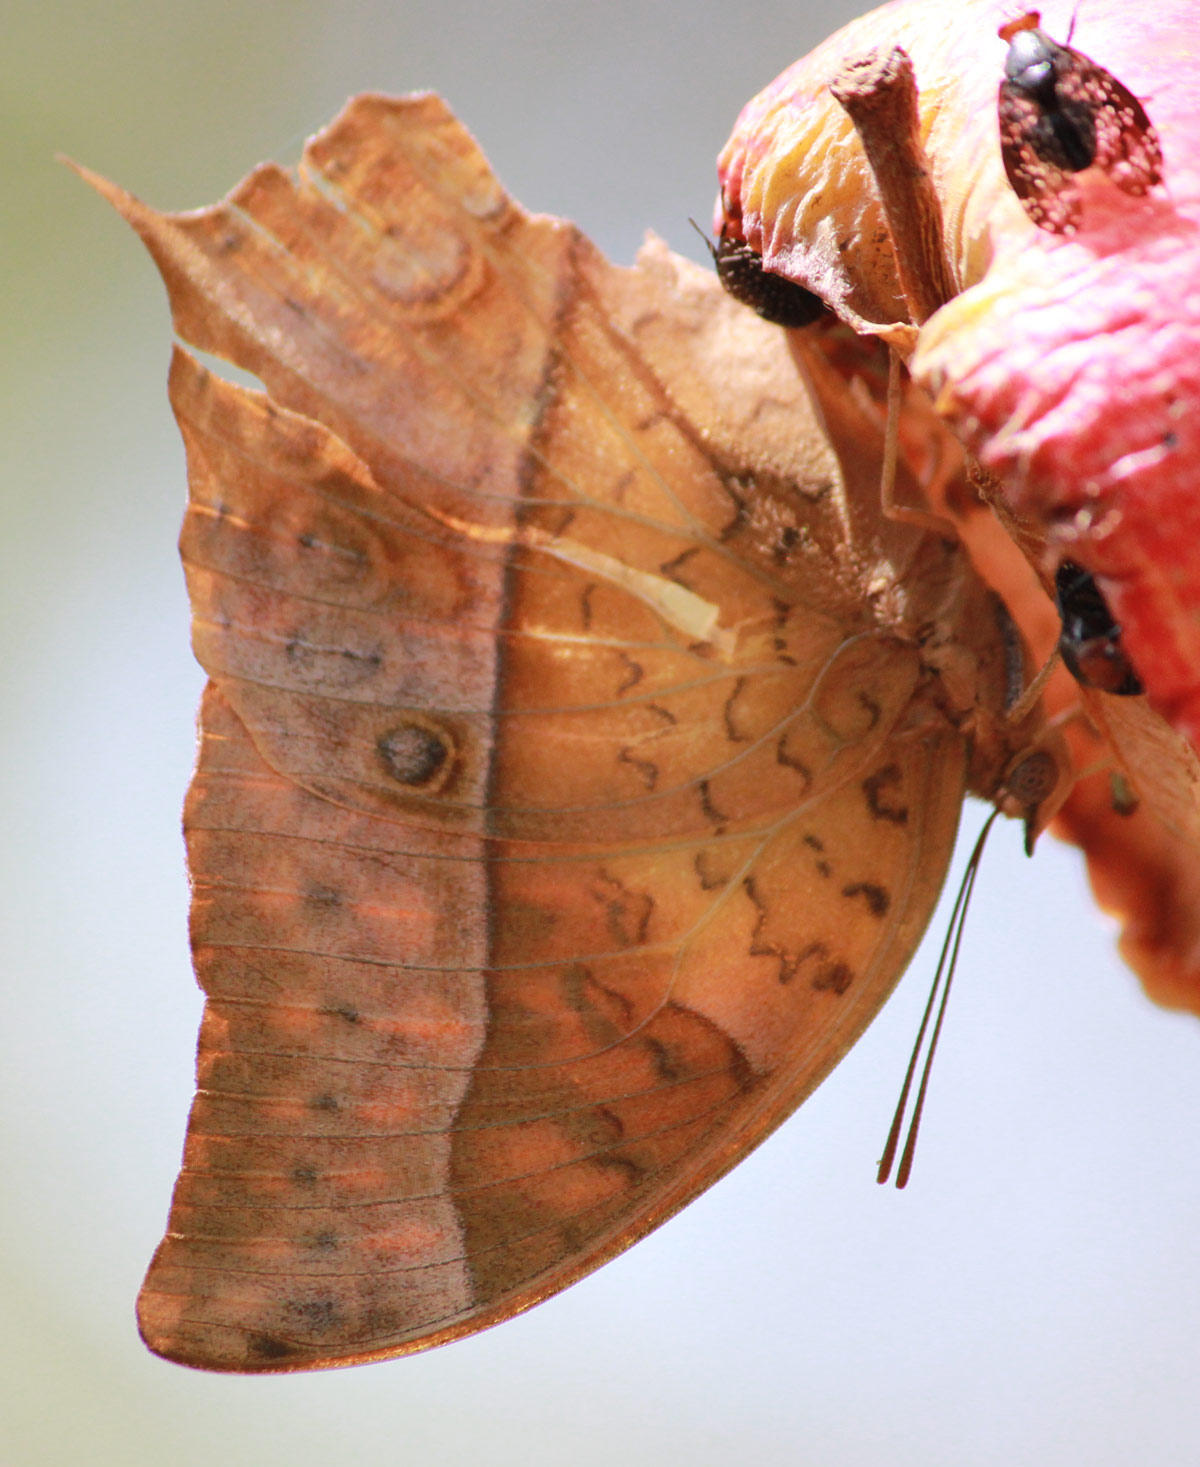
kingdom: Animalia
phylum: Arthropoda
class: Insecta
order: Lepidoptera
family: Nymphalidae
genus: Charaxes
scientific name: Charaxes varanes
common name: Common pearl charaxes
